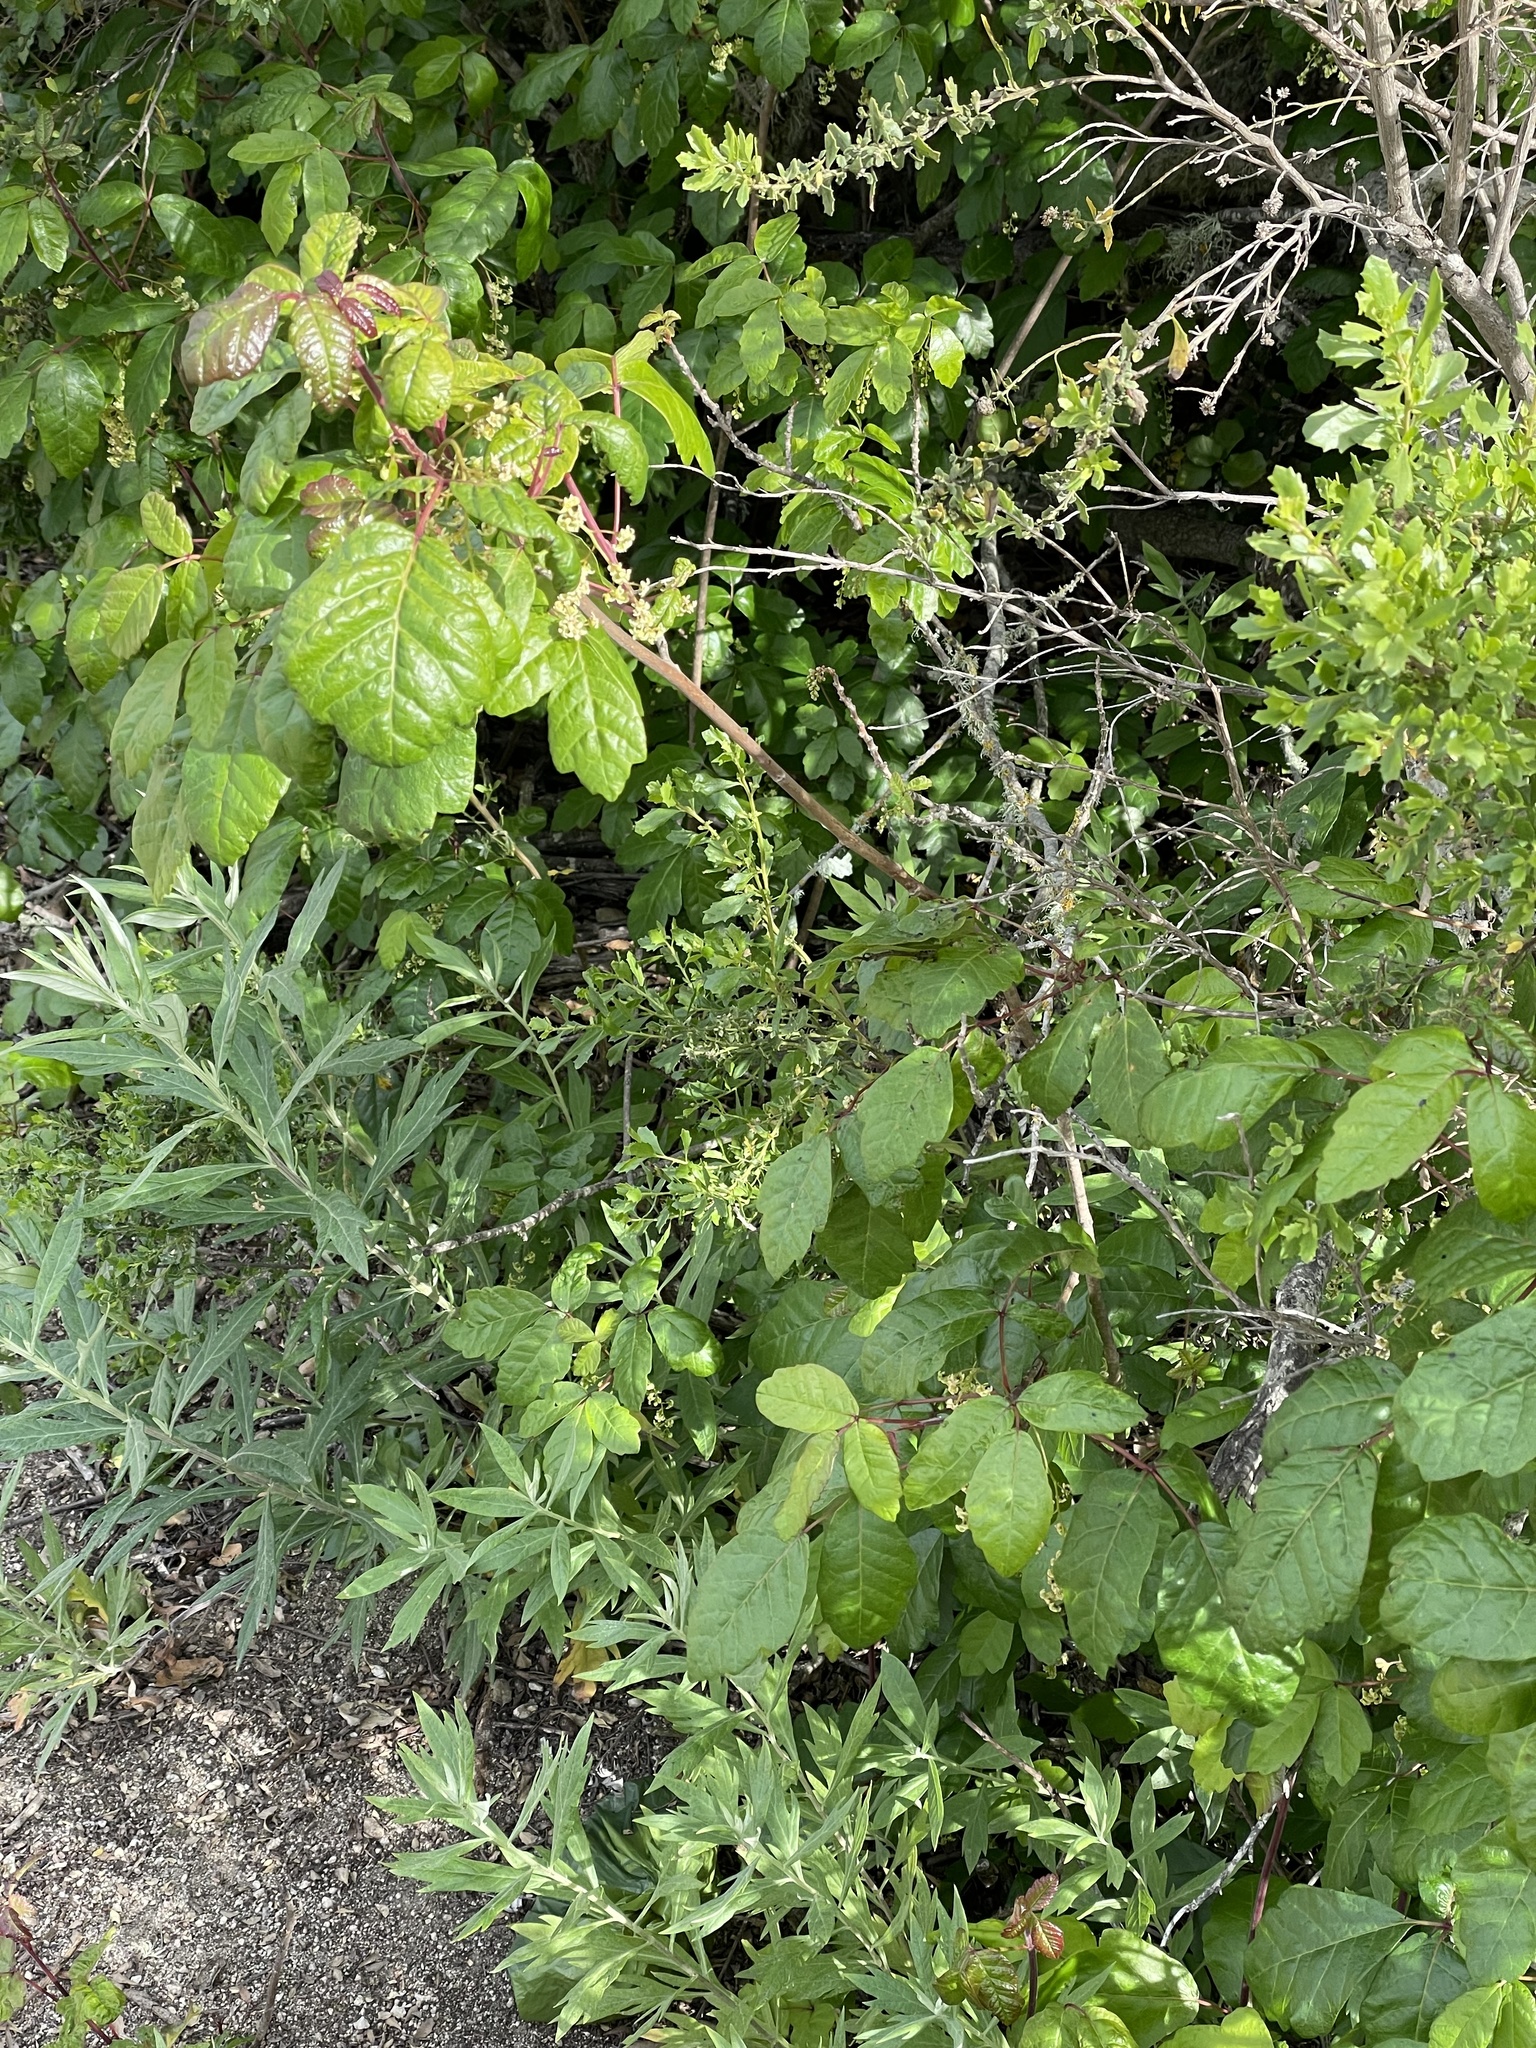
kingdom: Plantae
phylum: Tracheophyta
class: Magnoliopsida
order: Sapindales
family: Anacardiaceae
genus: Toxicodendron
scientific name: Toxicodendron diversilobum
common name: Pacific poison-oak
